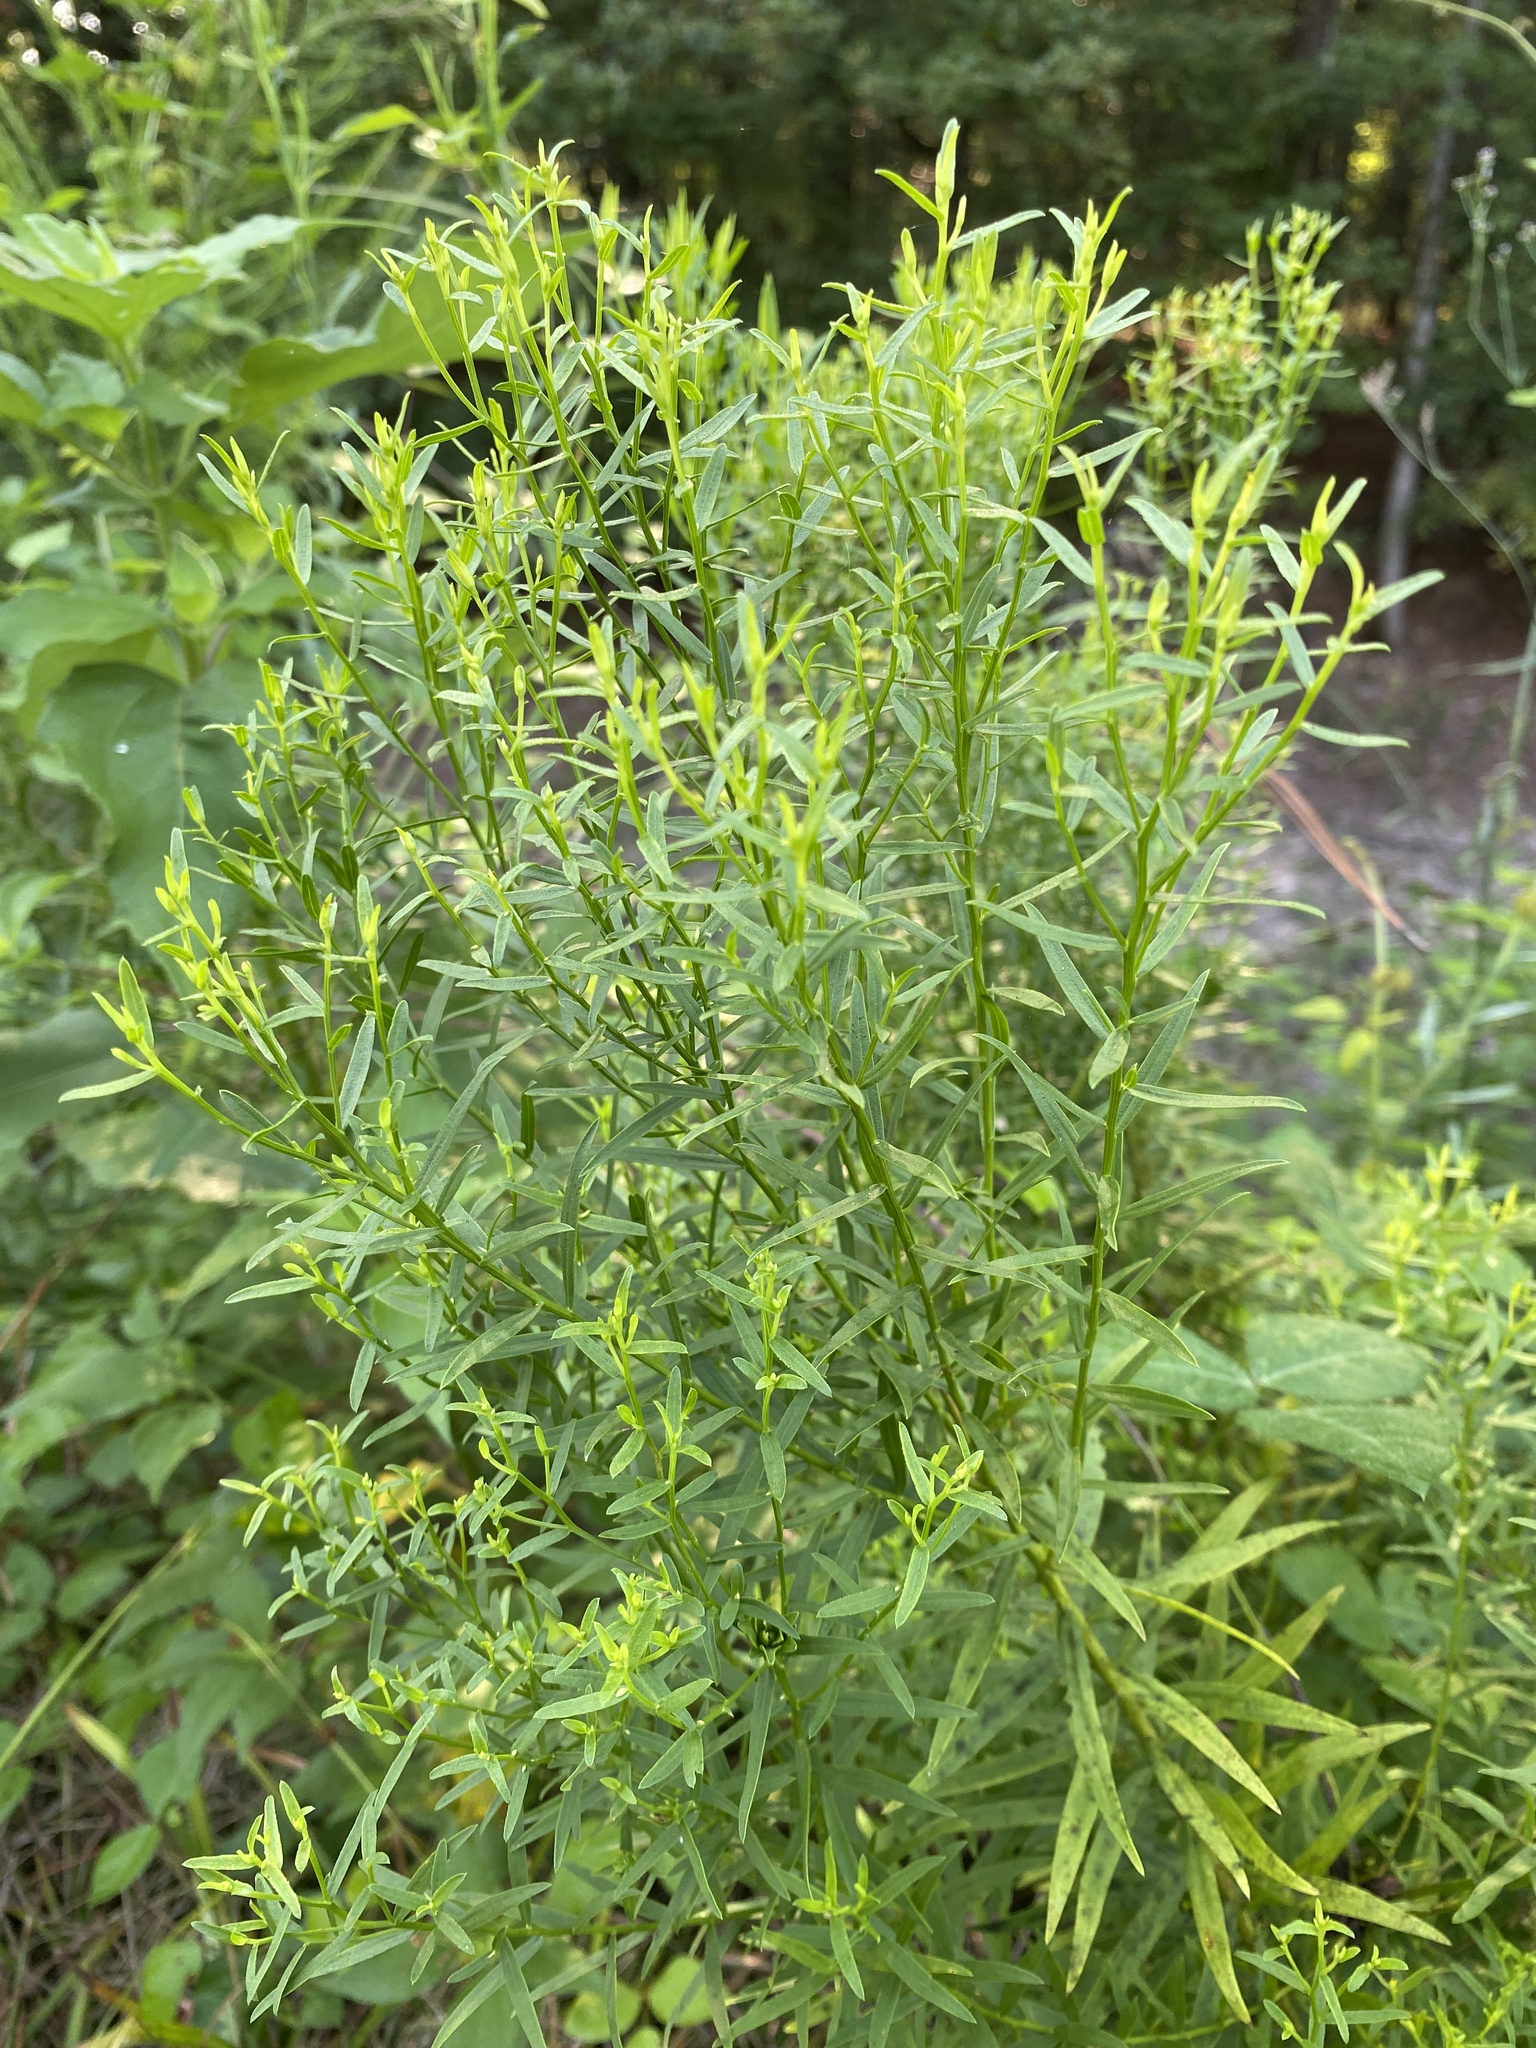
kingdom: Plantae
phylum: Tracheophyta
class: Magnoliopsida
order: Asterales
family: Asteraceae
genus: Euthamia
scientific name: Euthamia leptocephala
